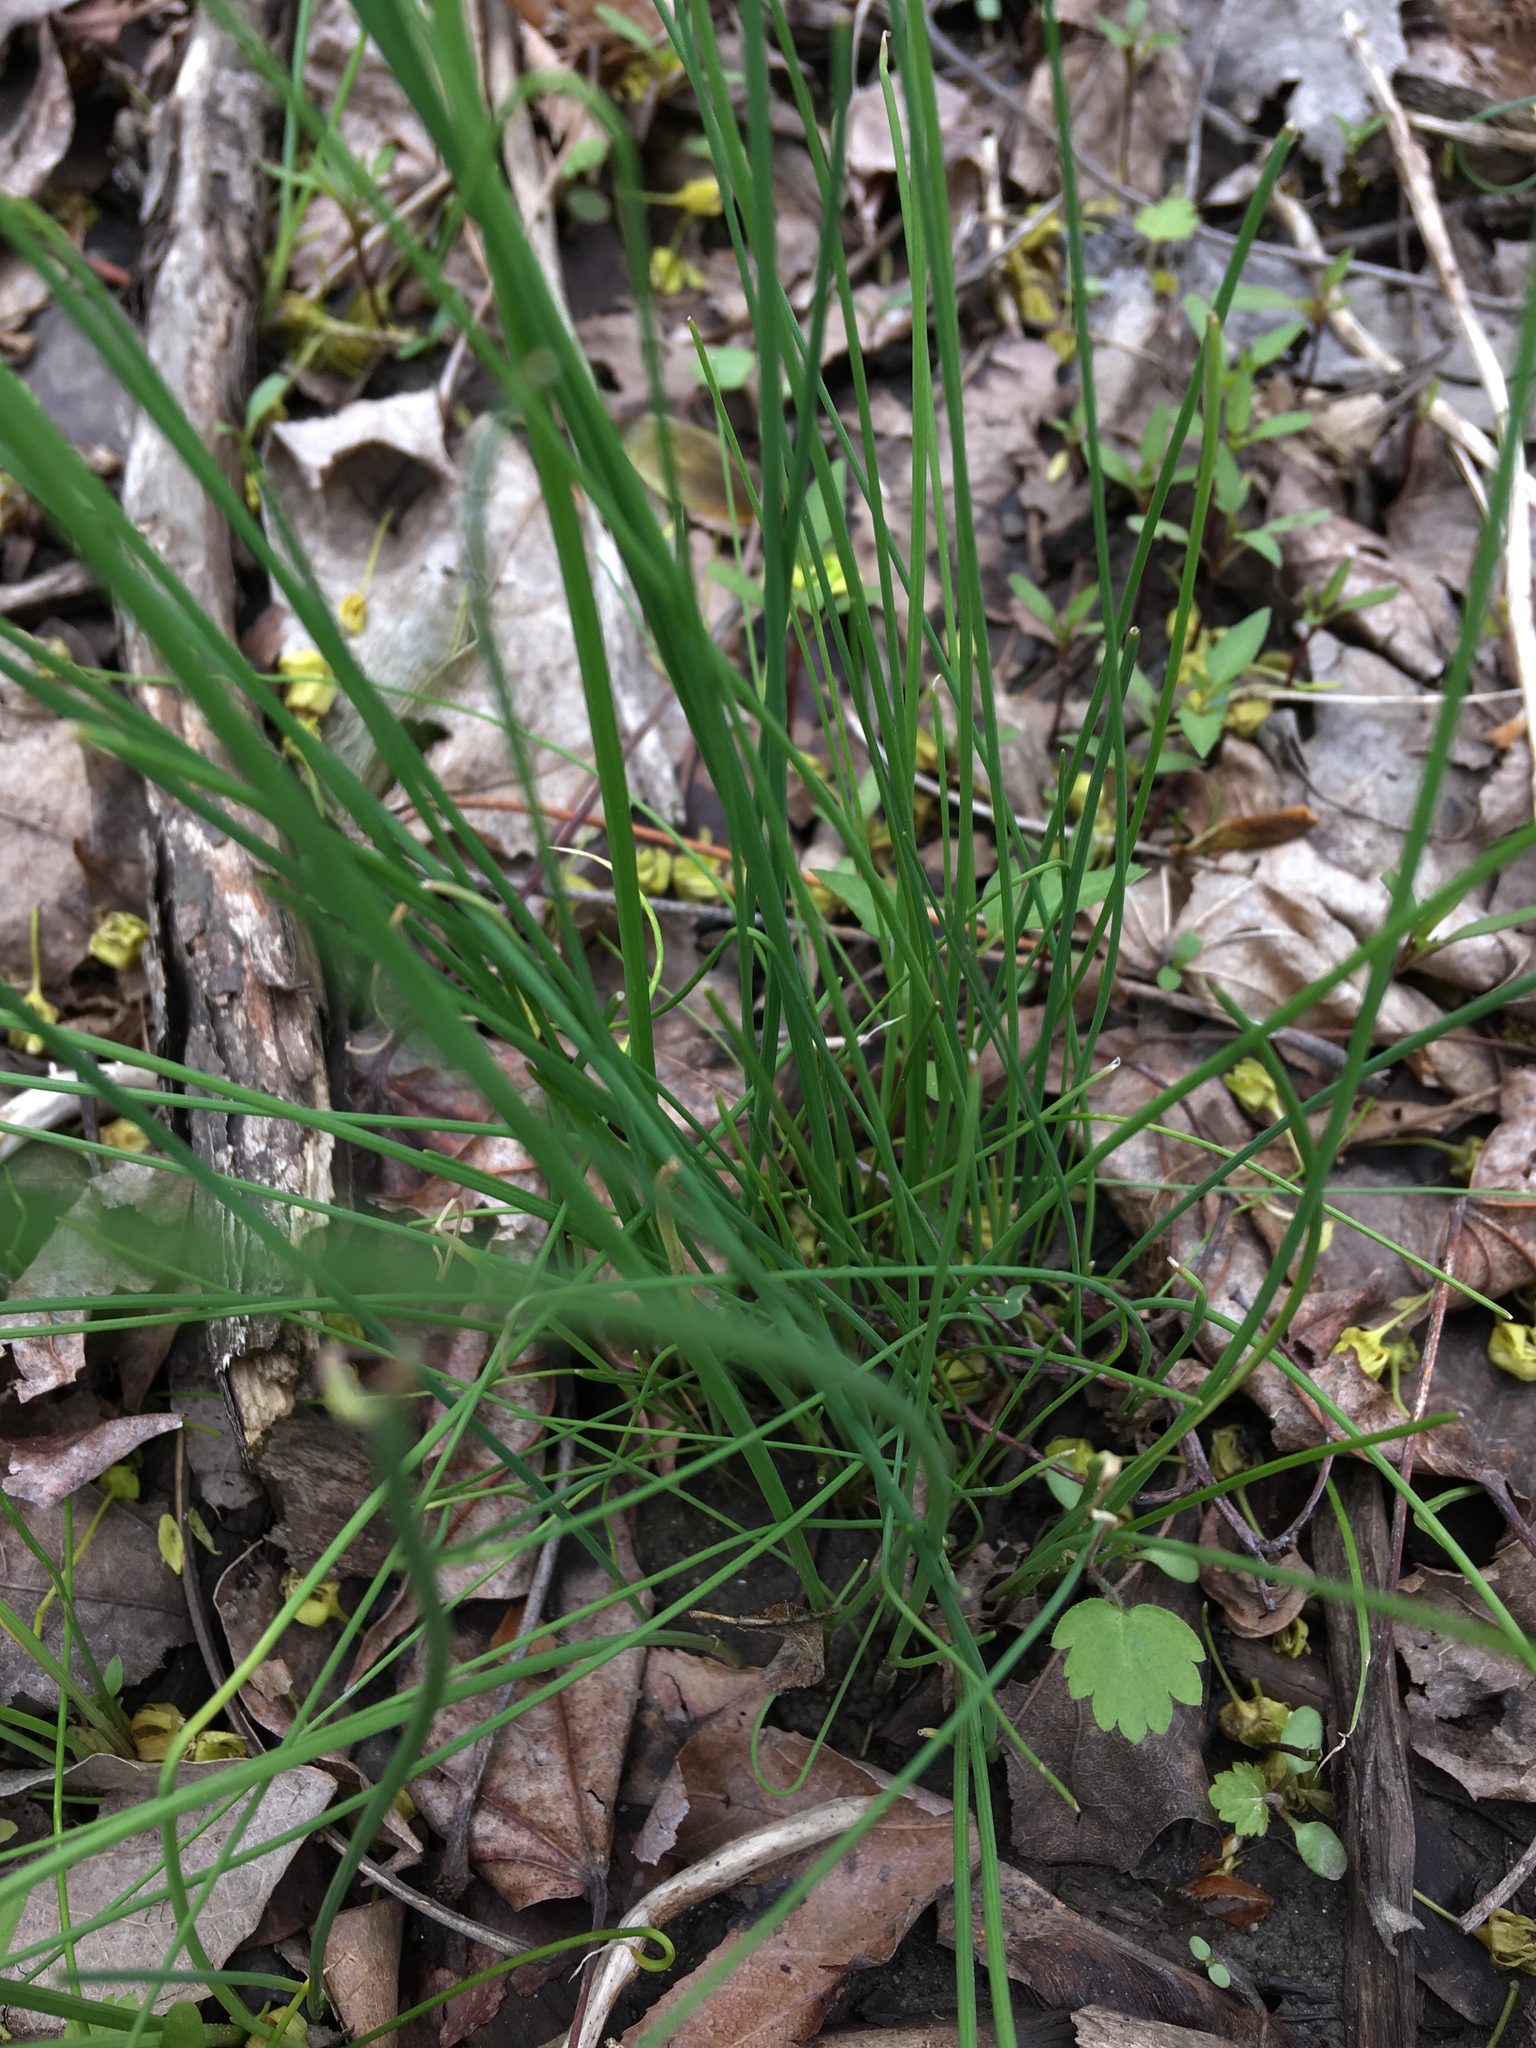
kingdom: Plantae
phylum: Tracheophyta
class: Liliopsida
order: Asparagales
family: Amaryllidaceae
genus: Allium
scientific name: Allium vineale
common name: Crow garlic
